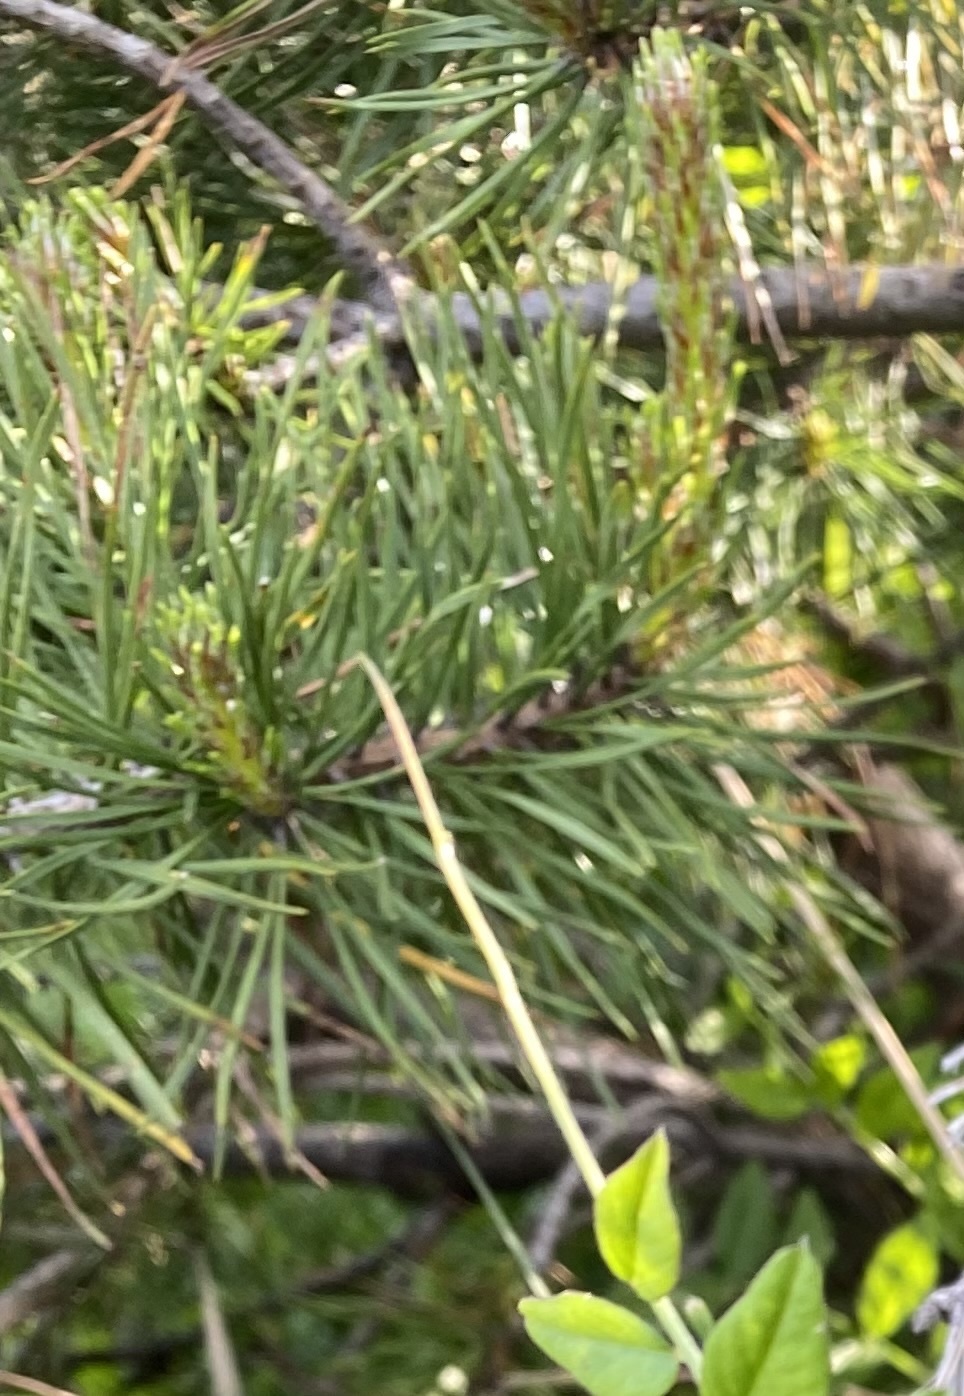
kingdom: Plantae
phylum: Tracheophyta
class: Pinopsida
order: Pinales
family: Pinaceae
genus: Pinus
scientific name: Pinus sylvestris
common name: Scots pine
